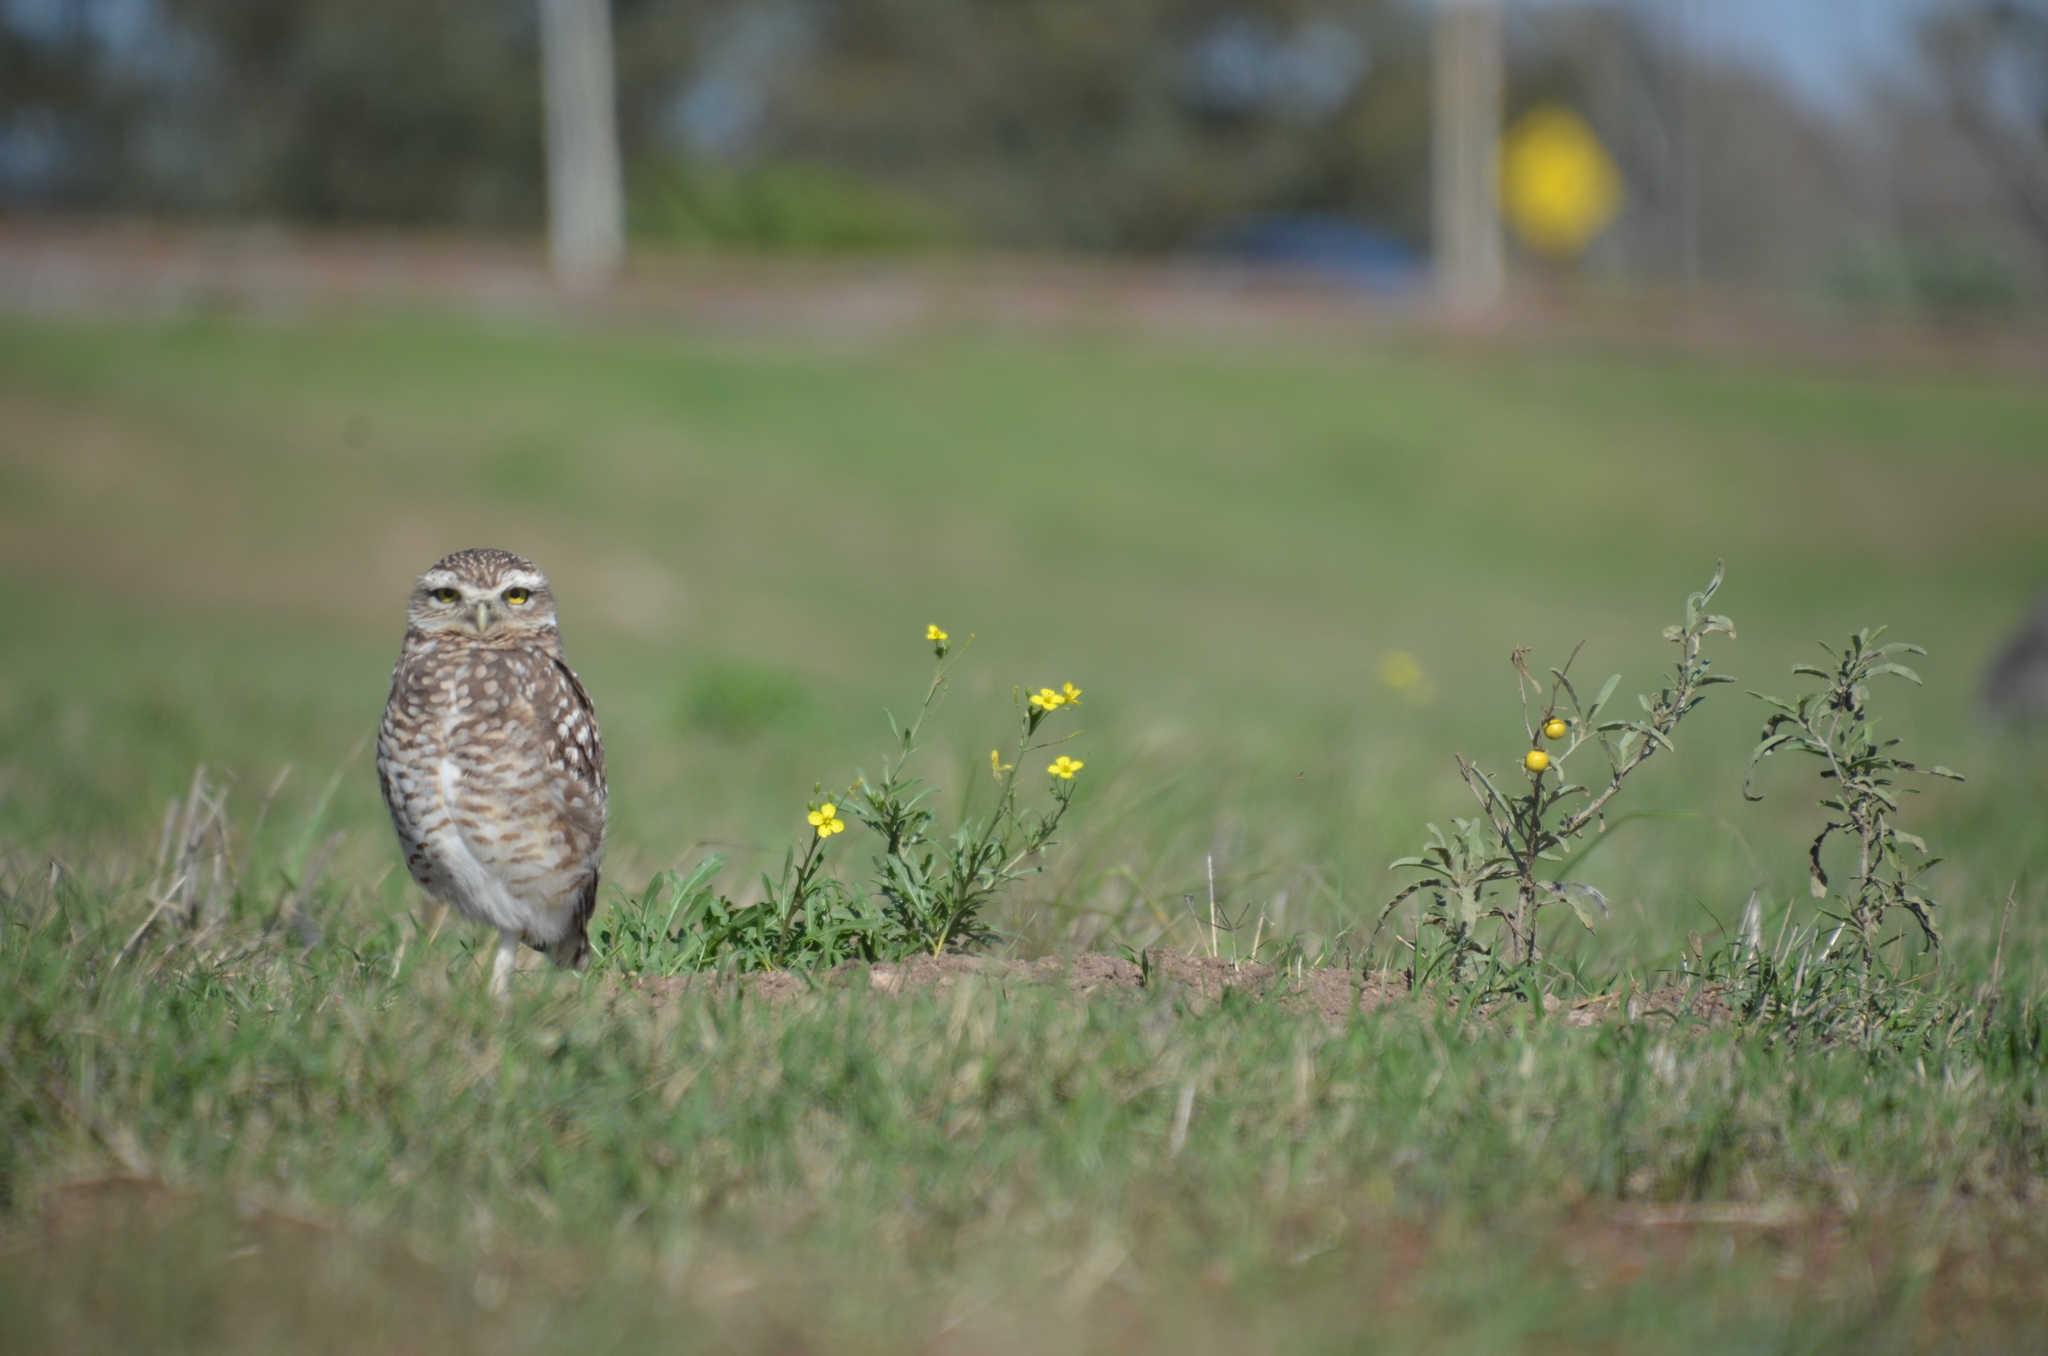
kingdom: Animalia
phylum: Chordata
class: Aves
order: Strigiformes
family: Strigidae
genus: Athene
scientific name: Athene cunicularia
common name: Burrowing owl
